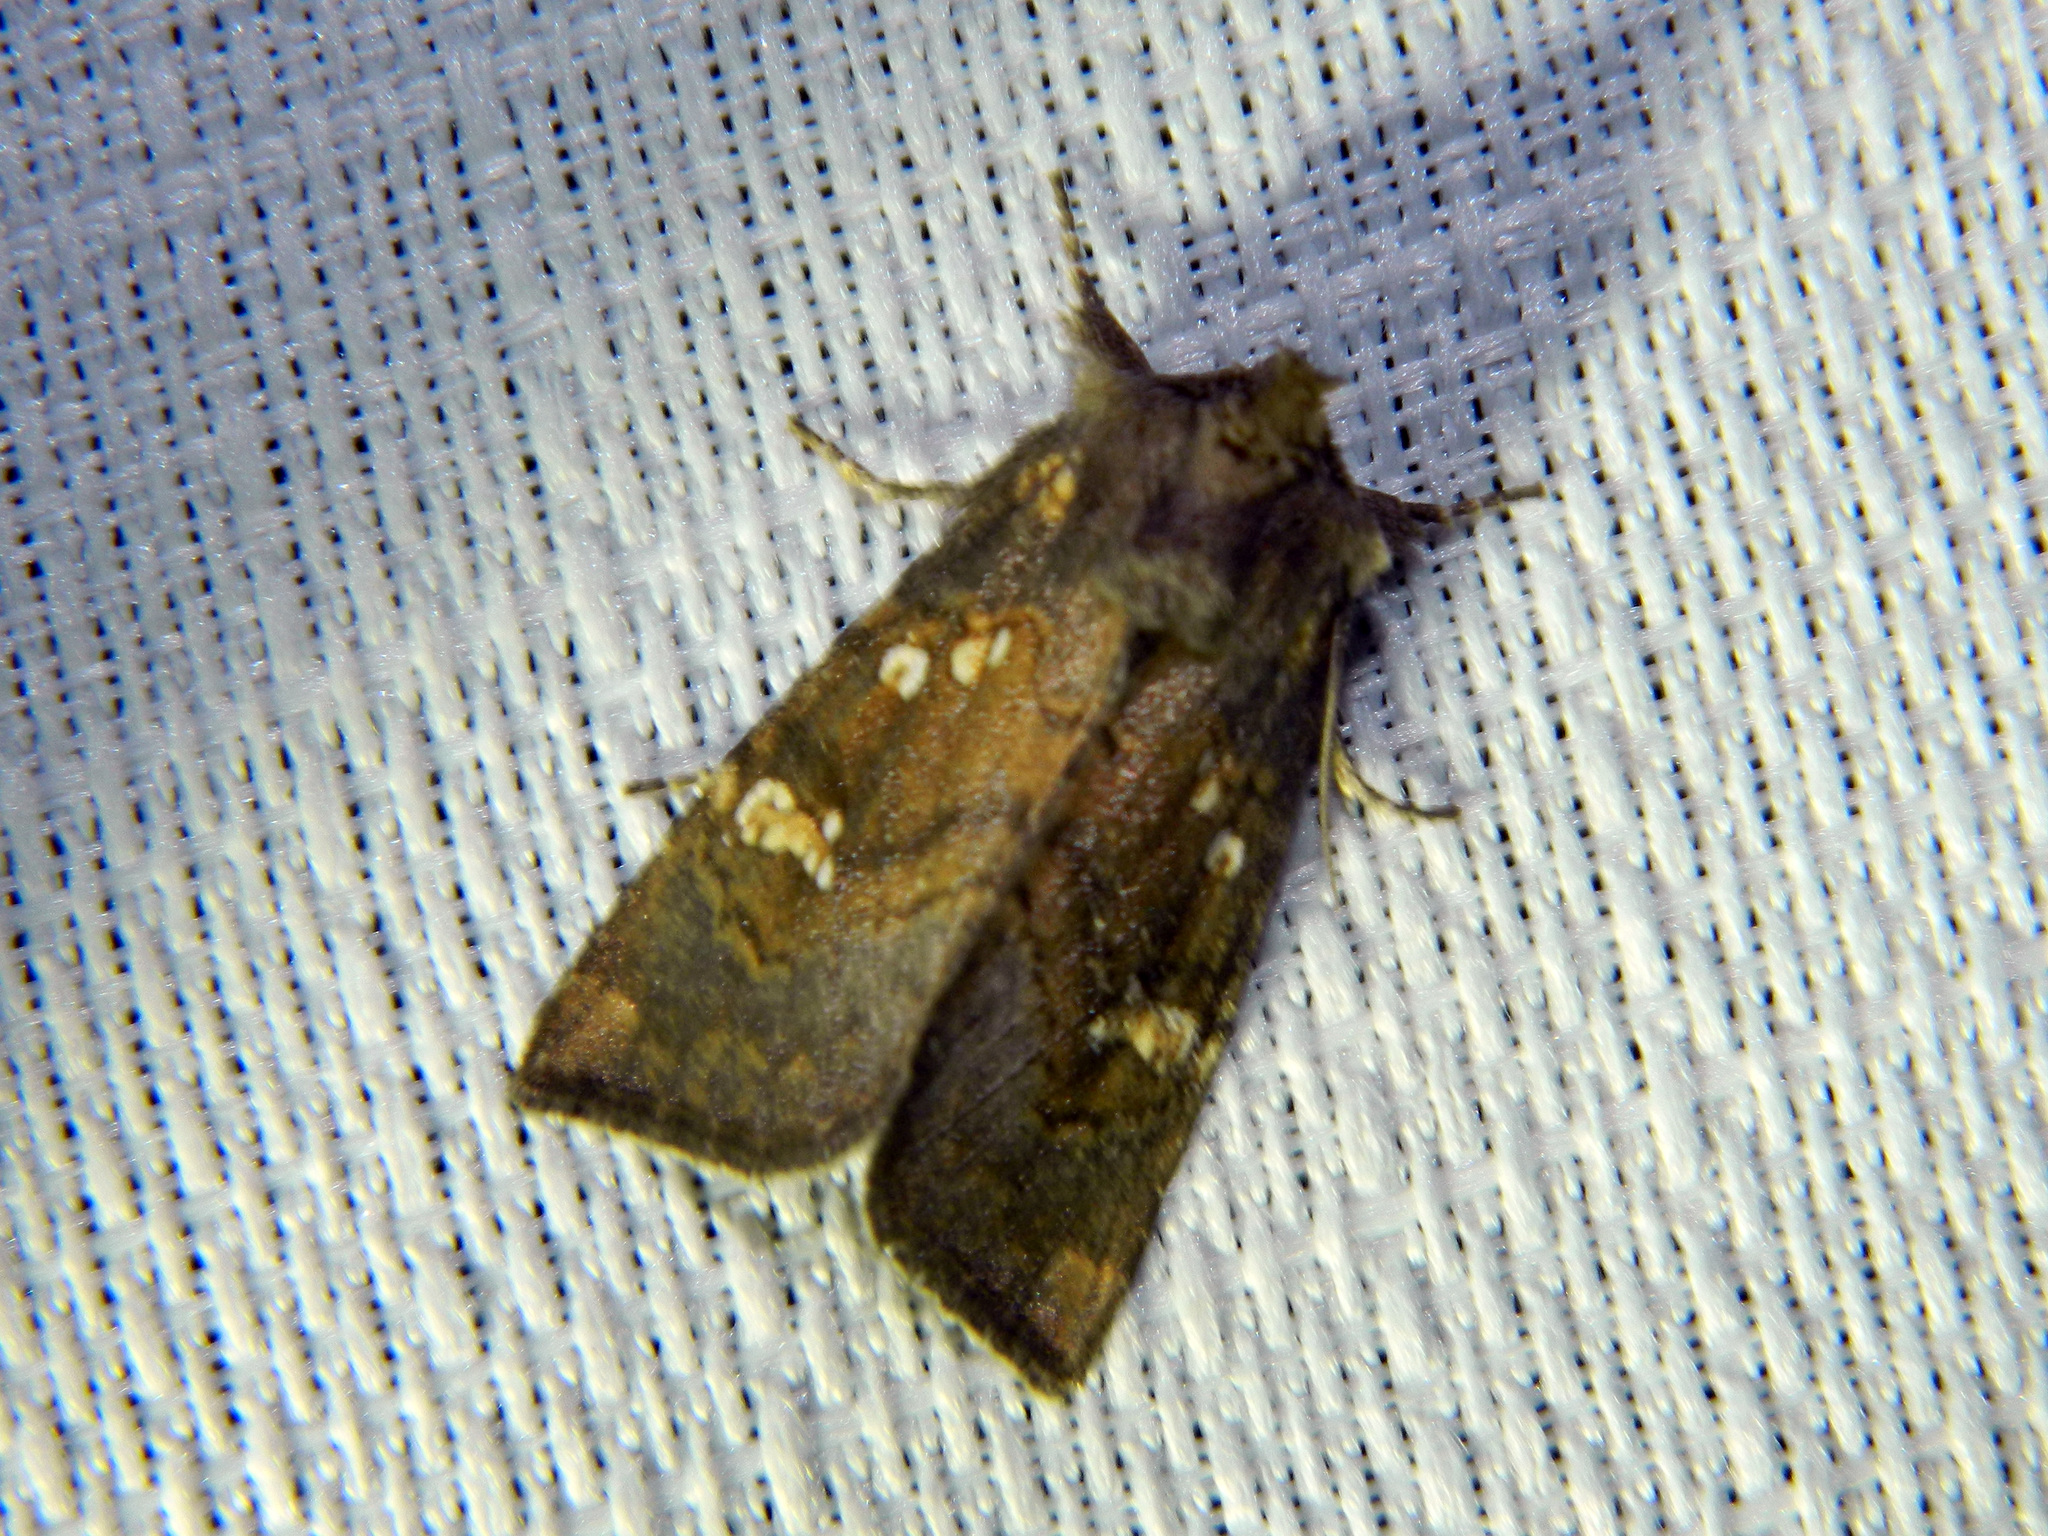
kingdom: Animalia
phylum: Arthropoda
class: Insecta
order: Lepidoptera
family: Noctuidae
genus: Papaipema
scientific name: Papaipema unimoda
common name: Meadow rue borer moth
